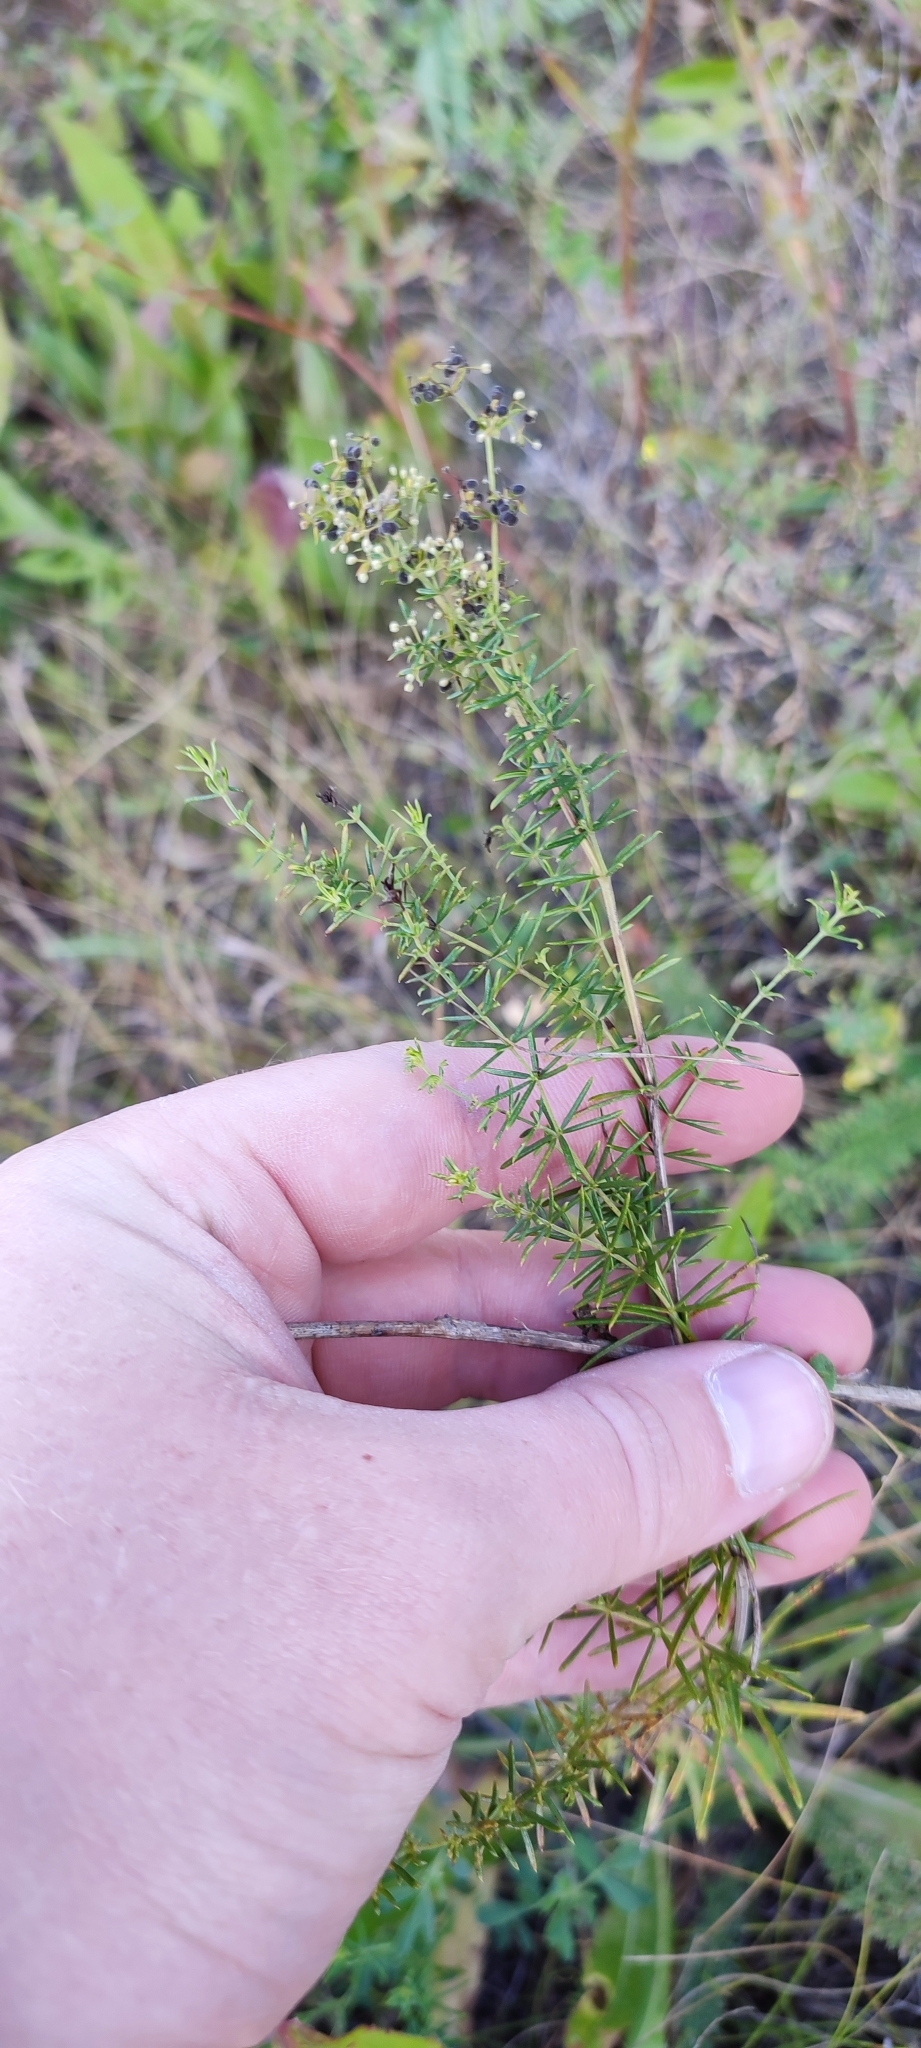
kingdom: Plantae
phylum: Tracheophyta
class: Magnoliopsida
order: Gentianales
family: Rubiaceae
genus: Galium
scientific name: Galium verum
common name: Lady's bedstraw
